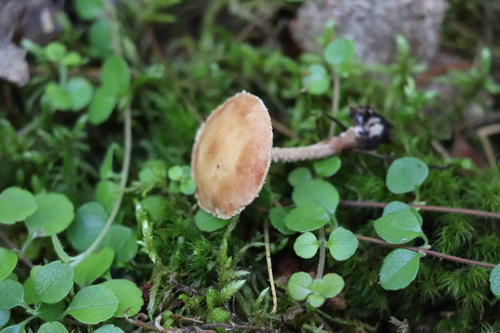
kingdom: Fungi
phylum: Basidiomycota
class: Agaricomycetes
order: Agaricales
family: Tricholomataceae
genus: Cystoderma
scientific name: Cystoderma jasonis
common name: Pine powdercap
